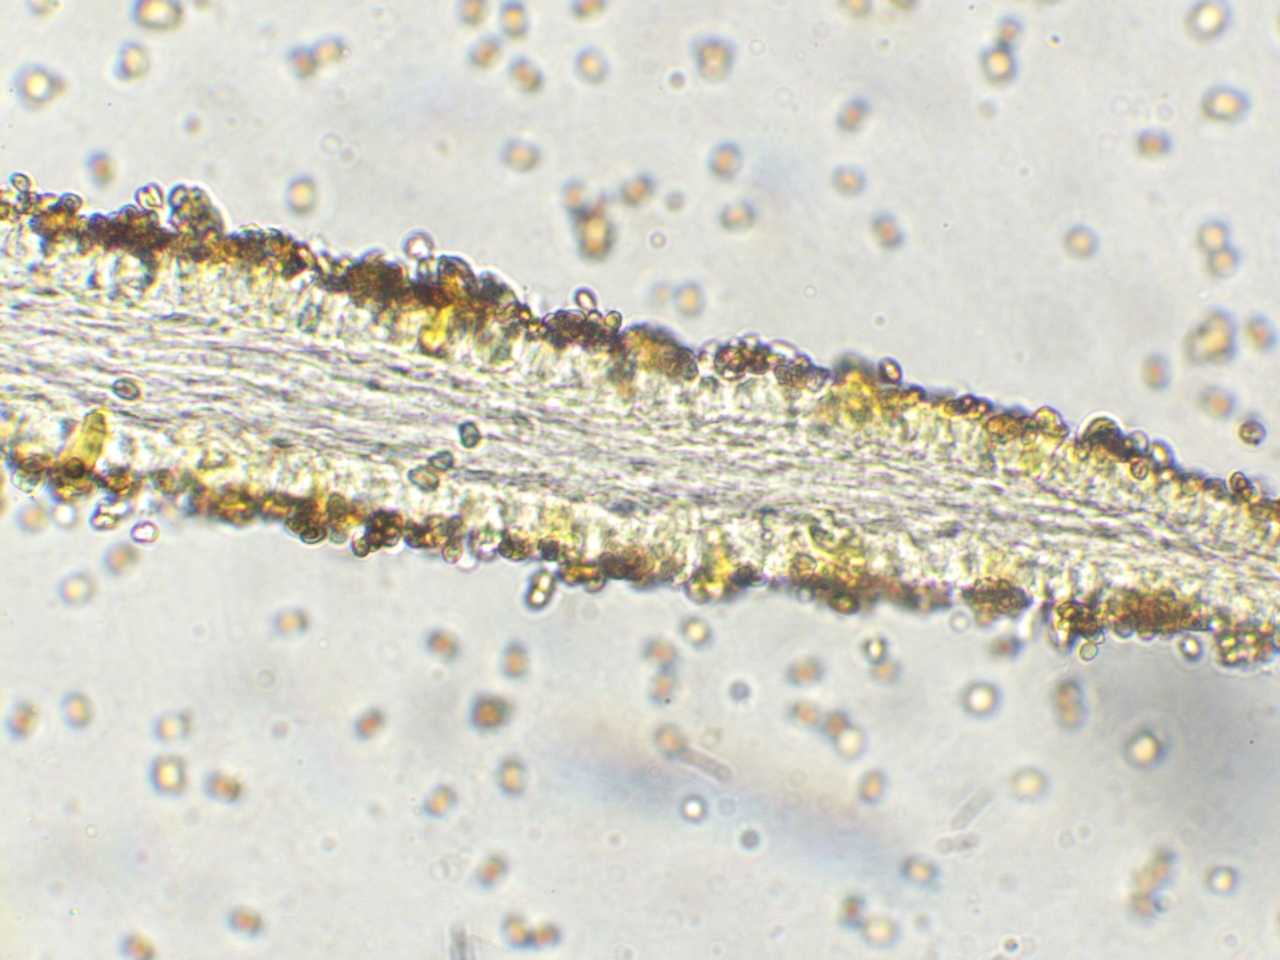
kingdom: Fungi
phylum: Basidiomycota
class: Agaricomycetes
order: Agaricales
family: Strophariaceae
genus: Hypholoma
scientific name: Hypholoma fasciculare
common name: Sulphur tuft
